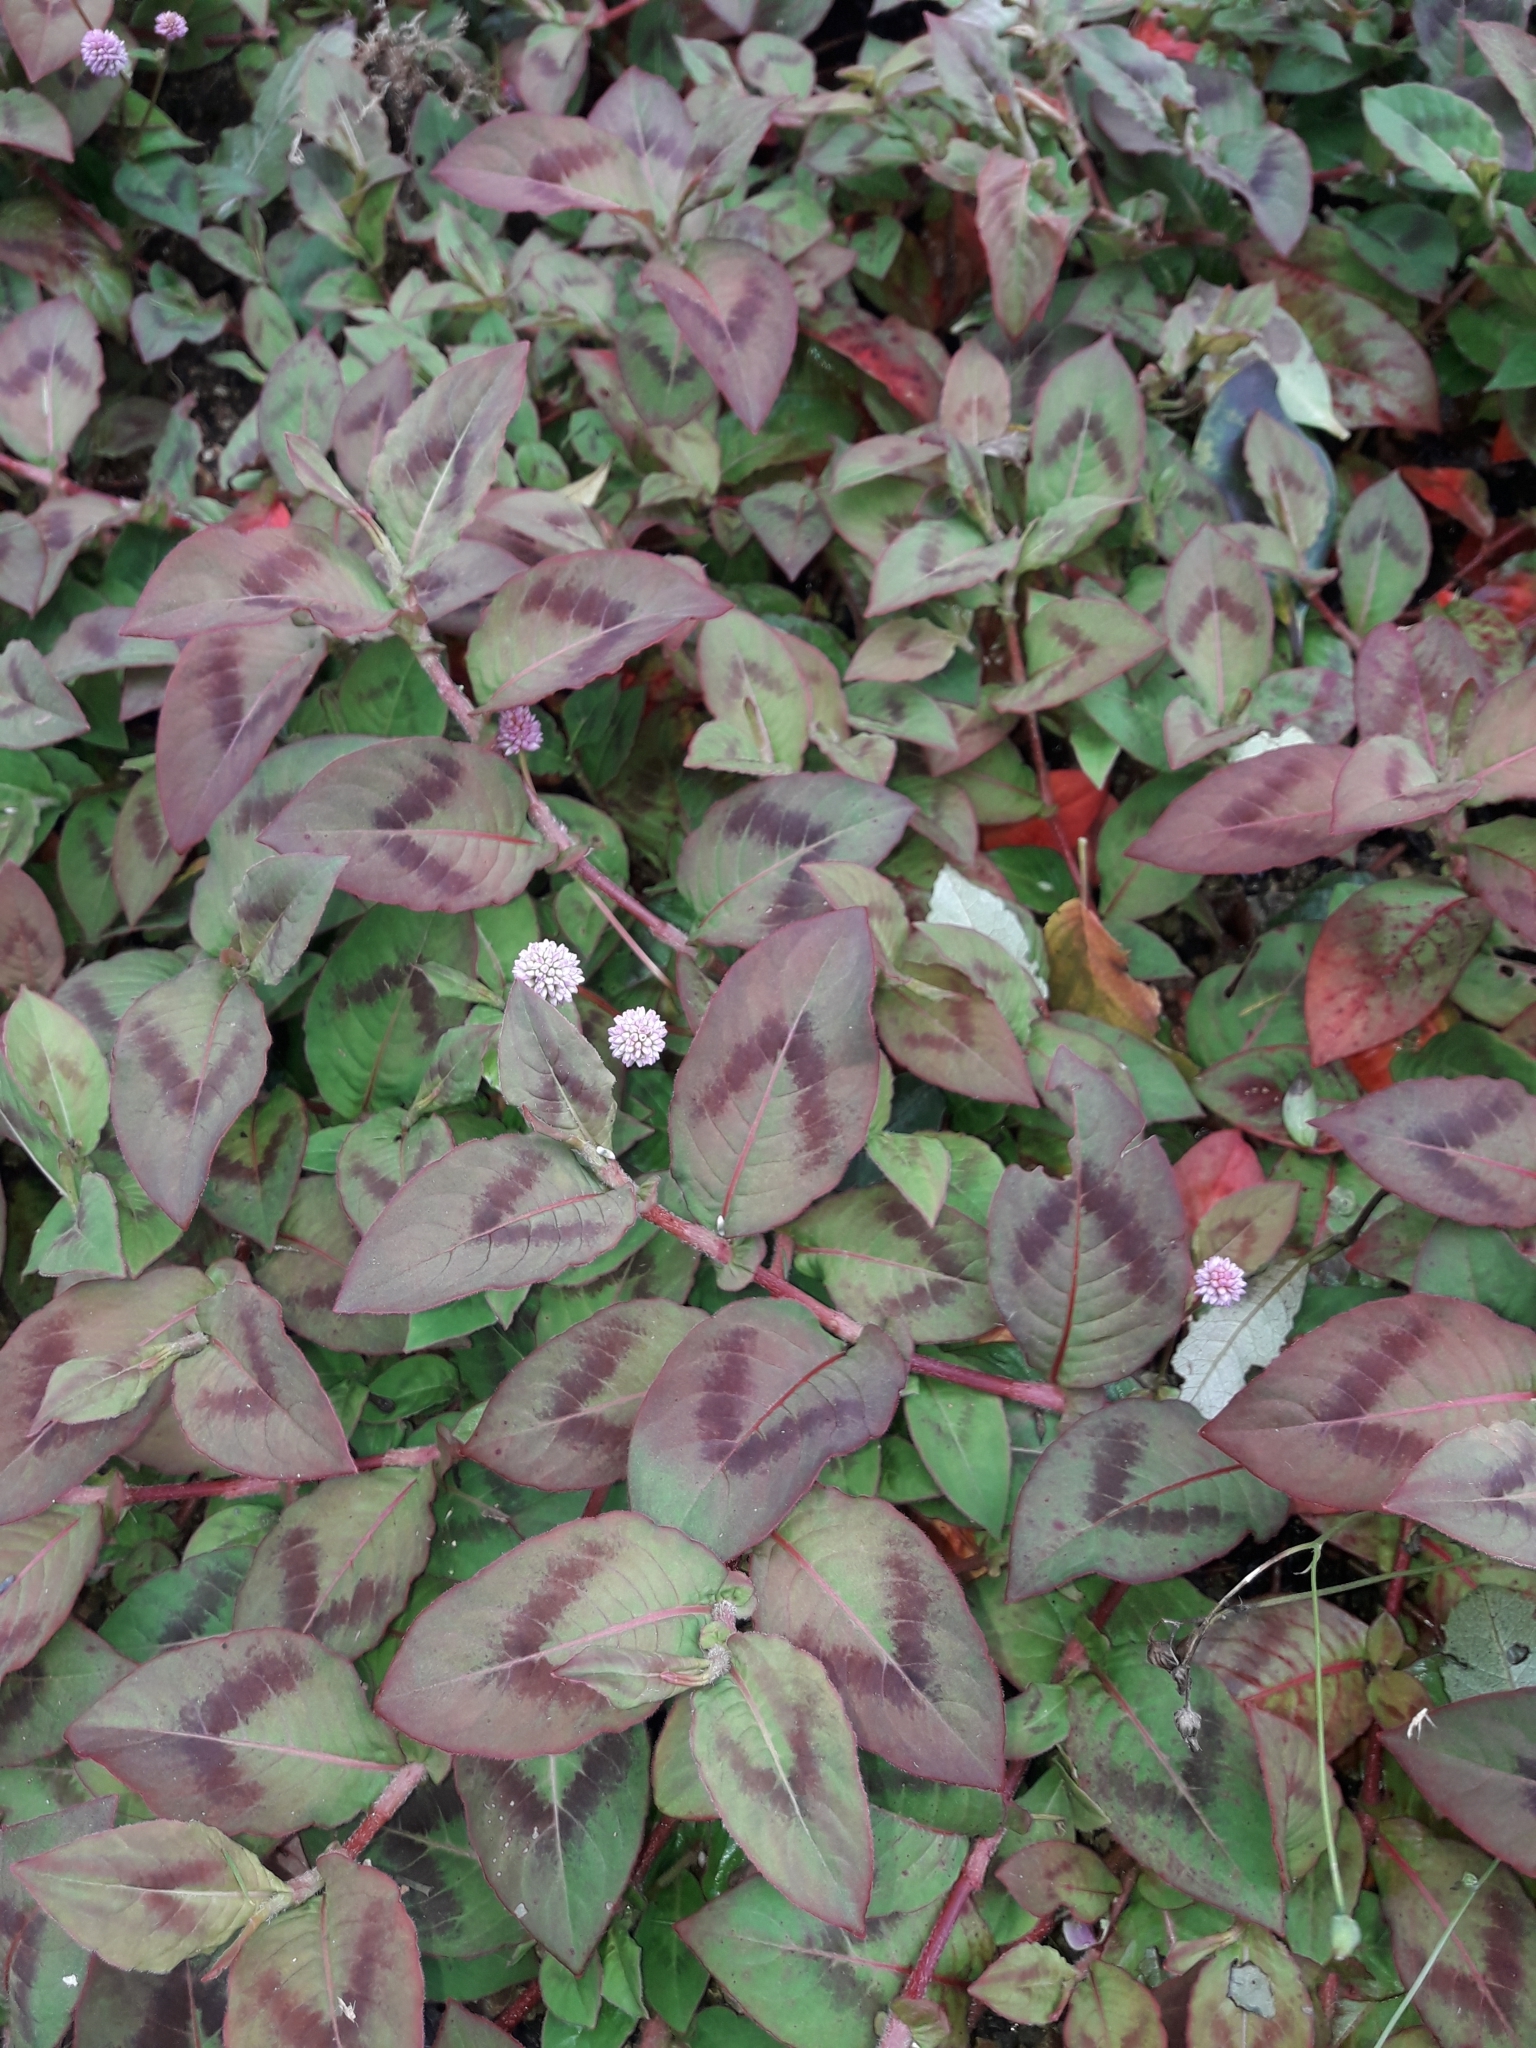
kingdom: Plantae
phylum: Tracheophyta
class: Magnoliopsida
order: Caryophyllales
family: Polygonaceae
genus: Persicaria
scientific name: Persicaria capitata
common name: Pinkhead smartweed
